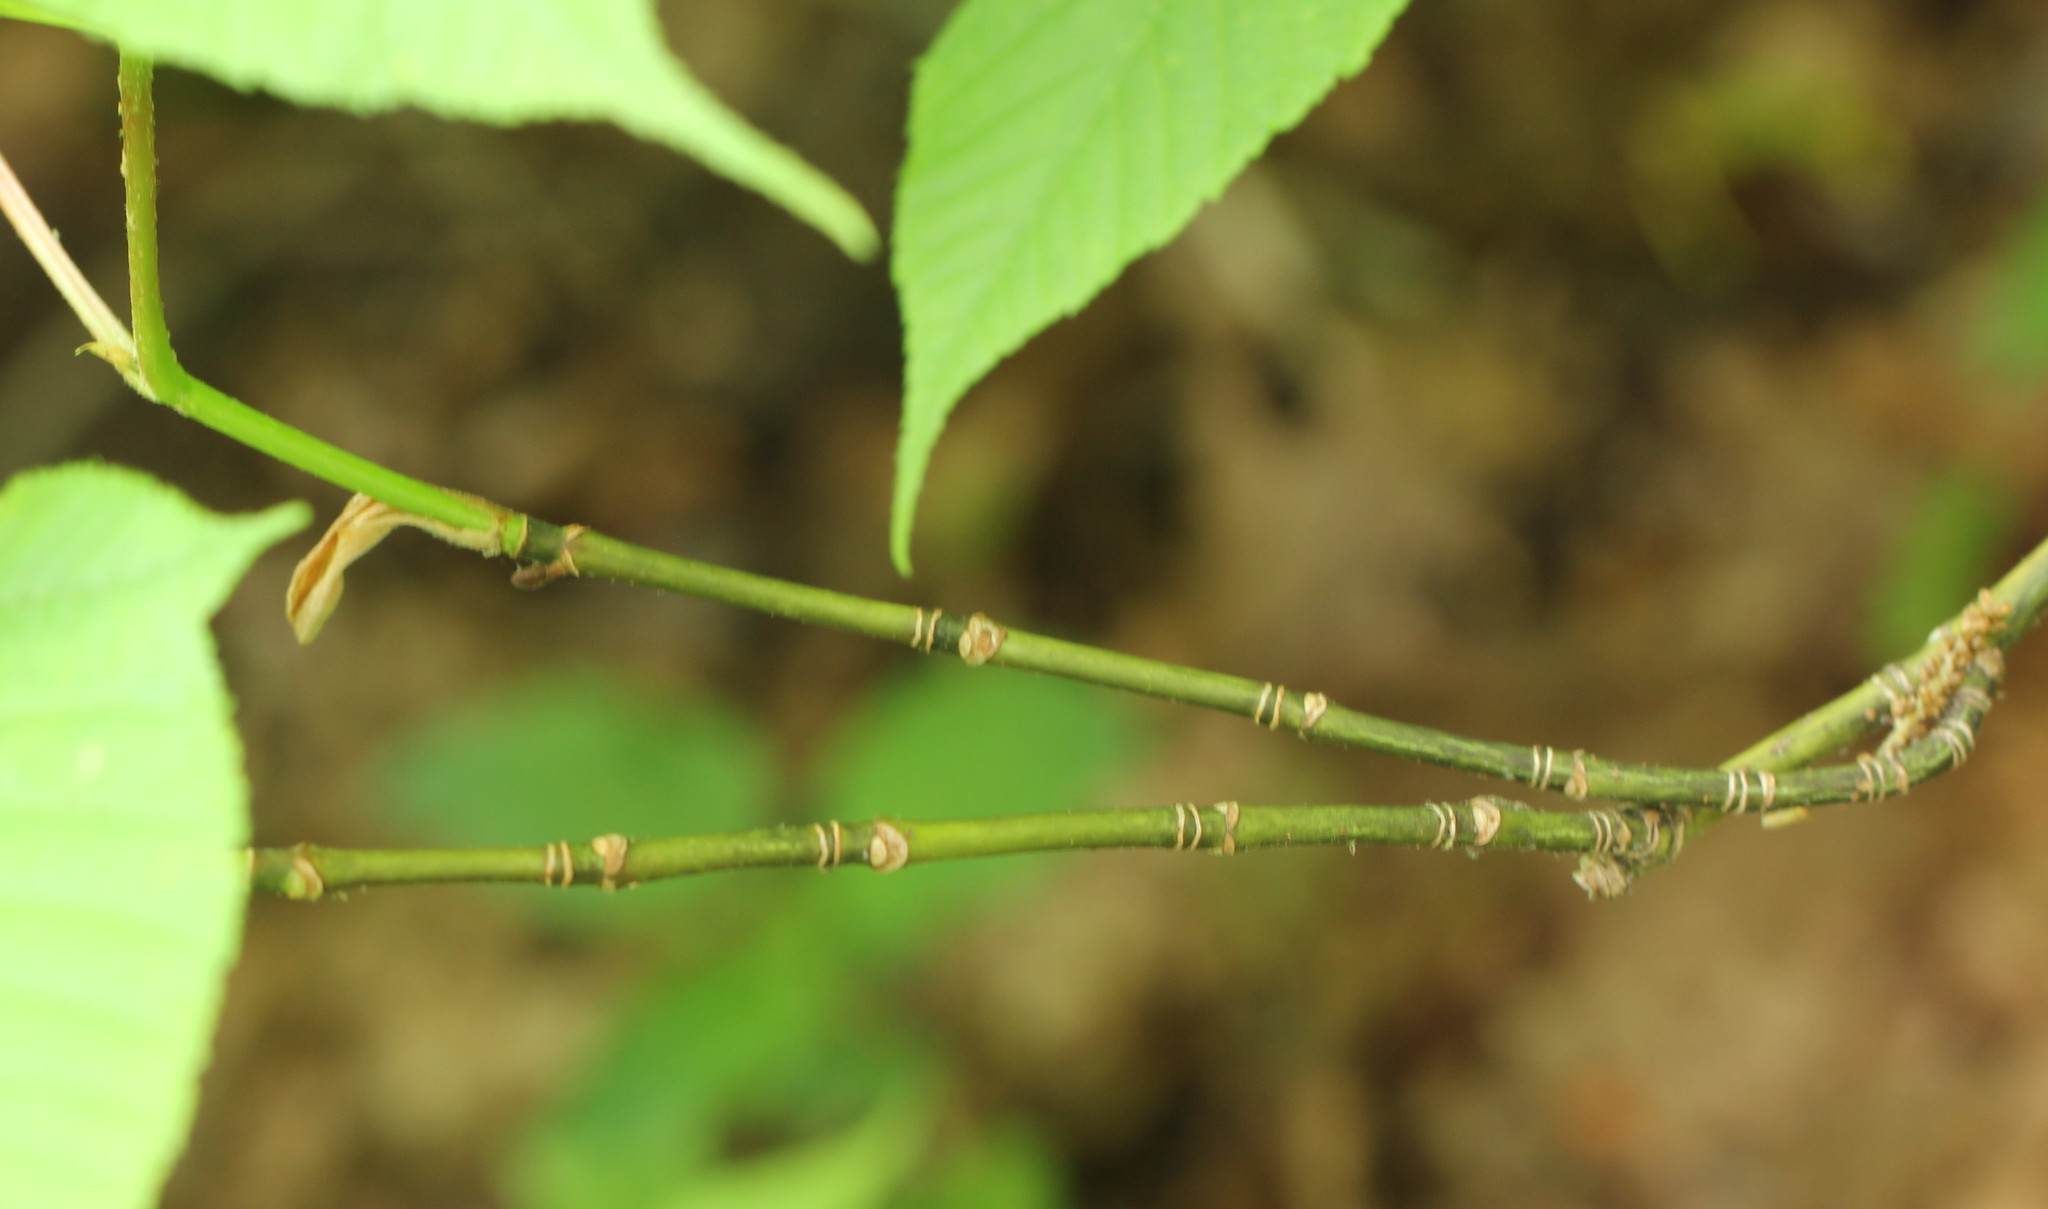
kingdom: Plantae
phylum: Tracheophyta
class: Magnoliopsida
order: Sapindales
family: Sapindaceae
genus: Acer
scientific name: Acer pensylvanicum
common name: Moosewood
